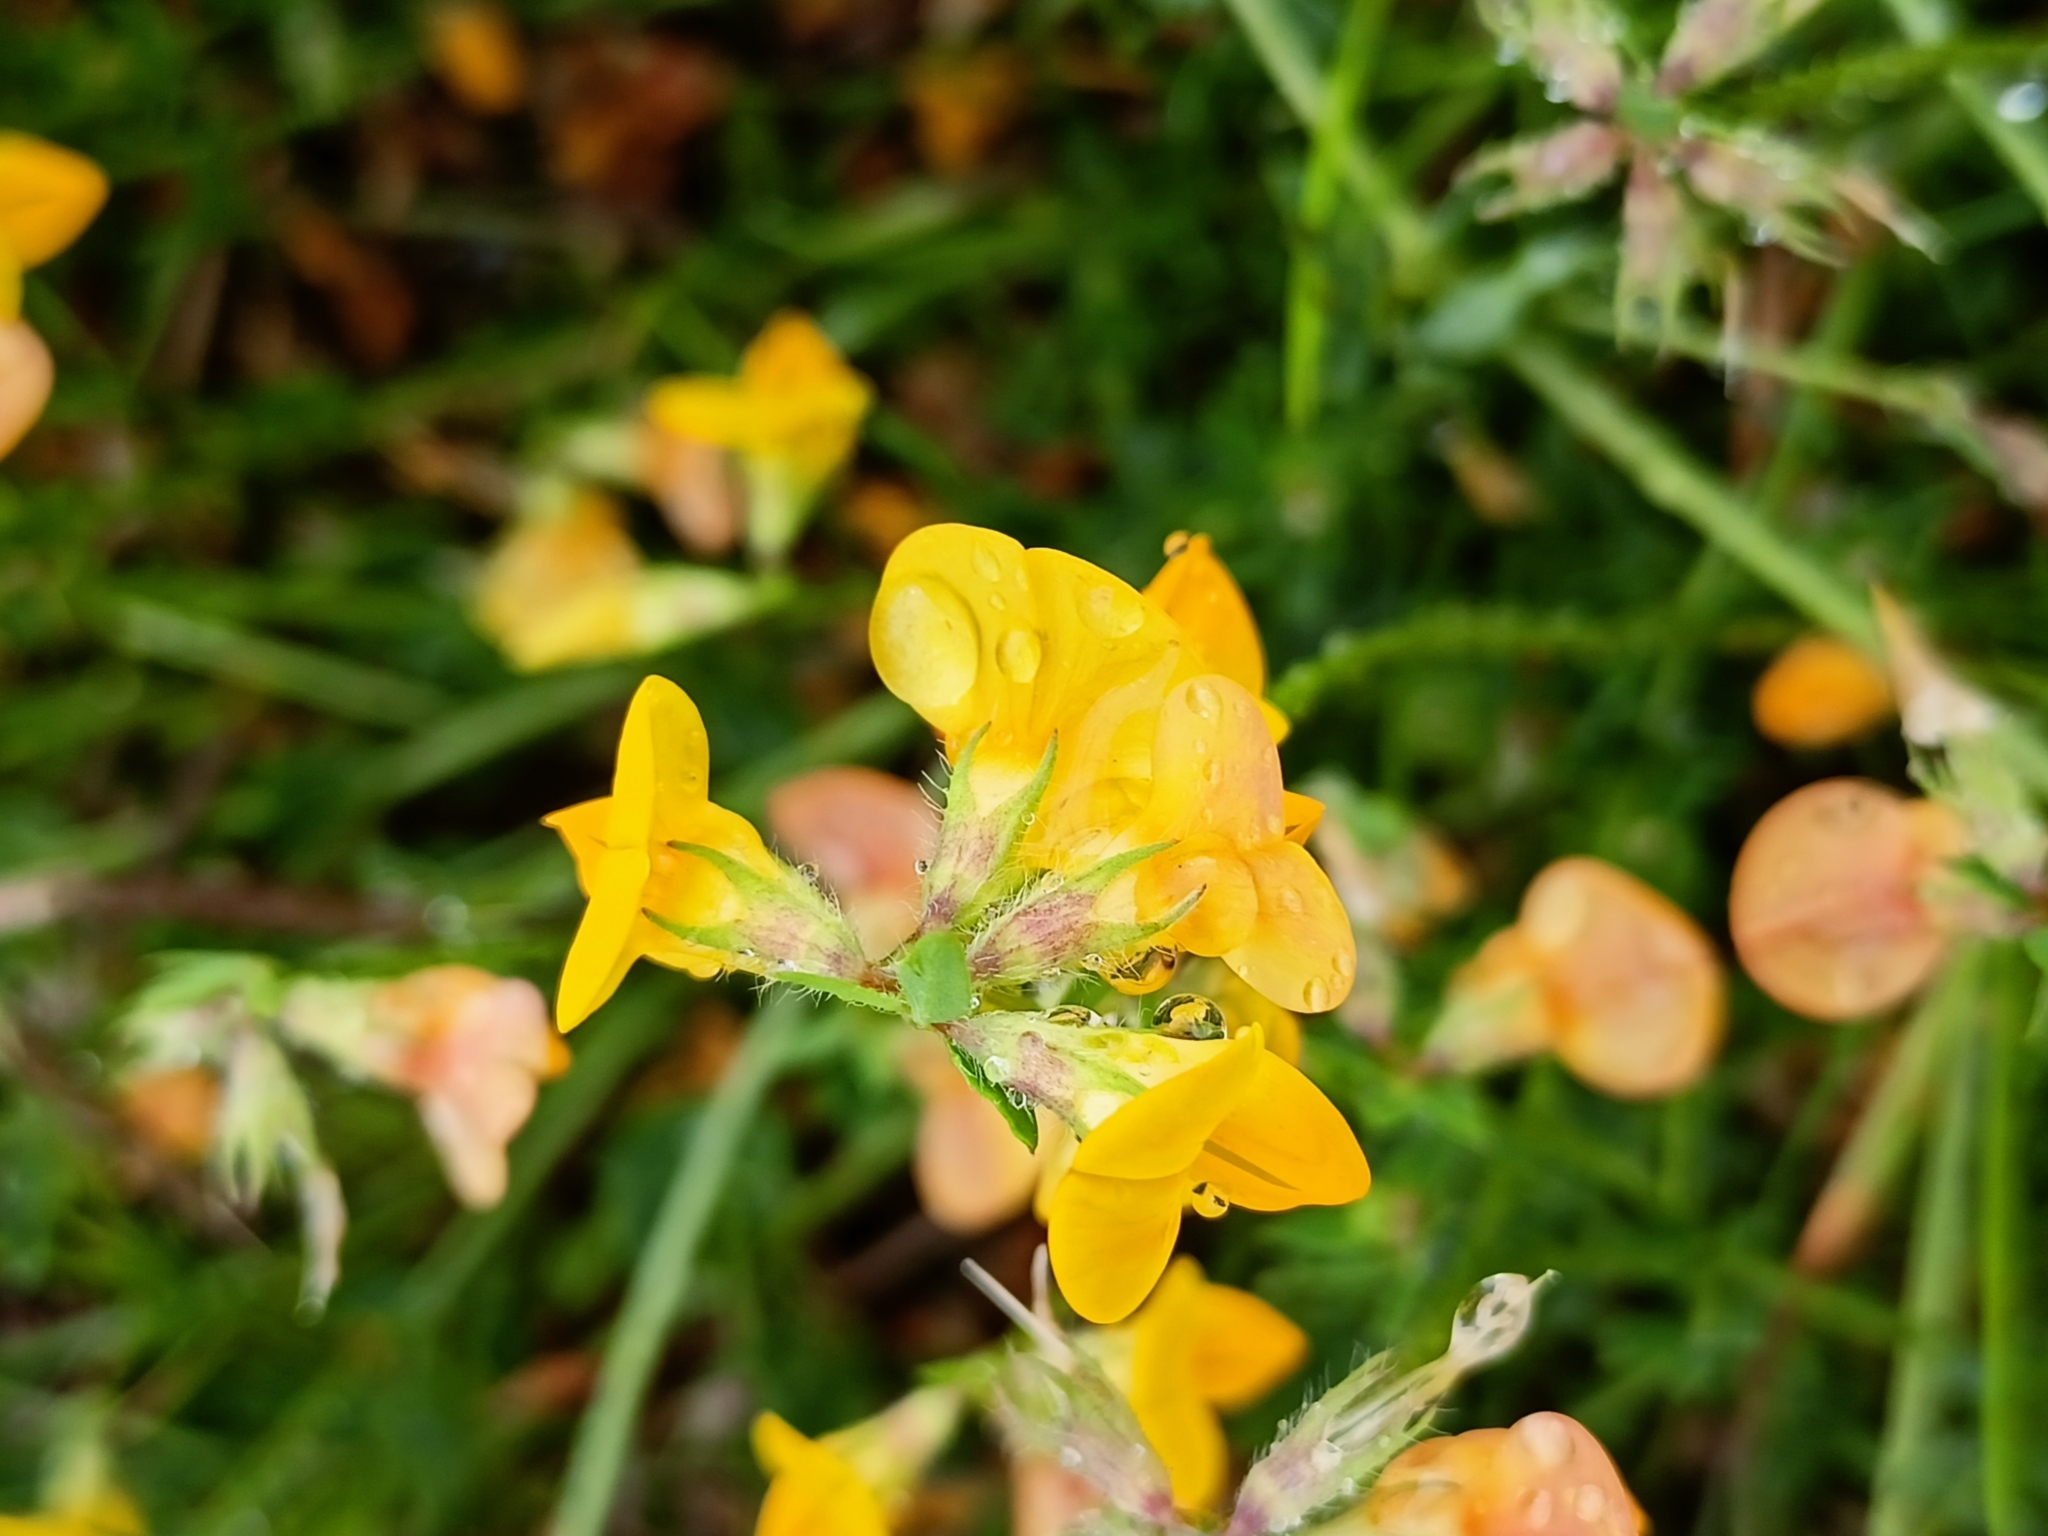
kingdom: Plantae
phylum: Tracheophyta
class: Magnoliopsida
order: Fabales
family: Fabaceae
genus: Lotus
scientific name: Lotus corniculatus
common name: Common bird's-foot-trefoil
